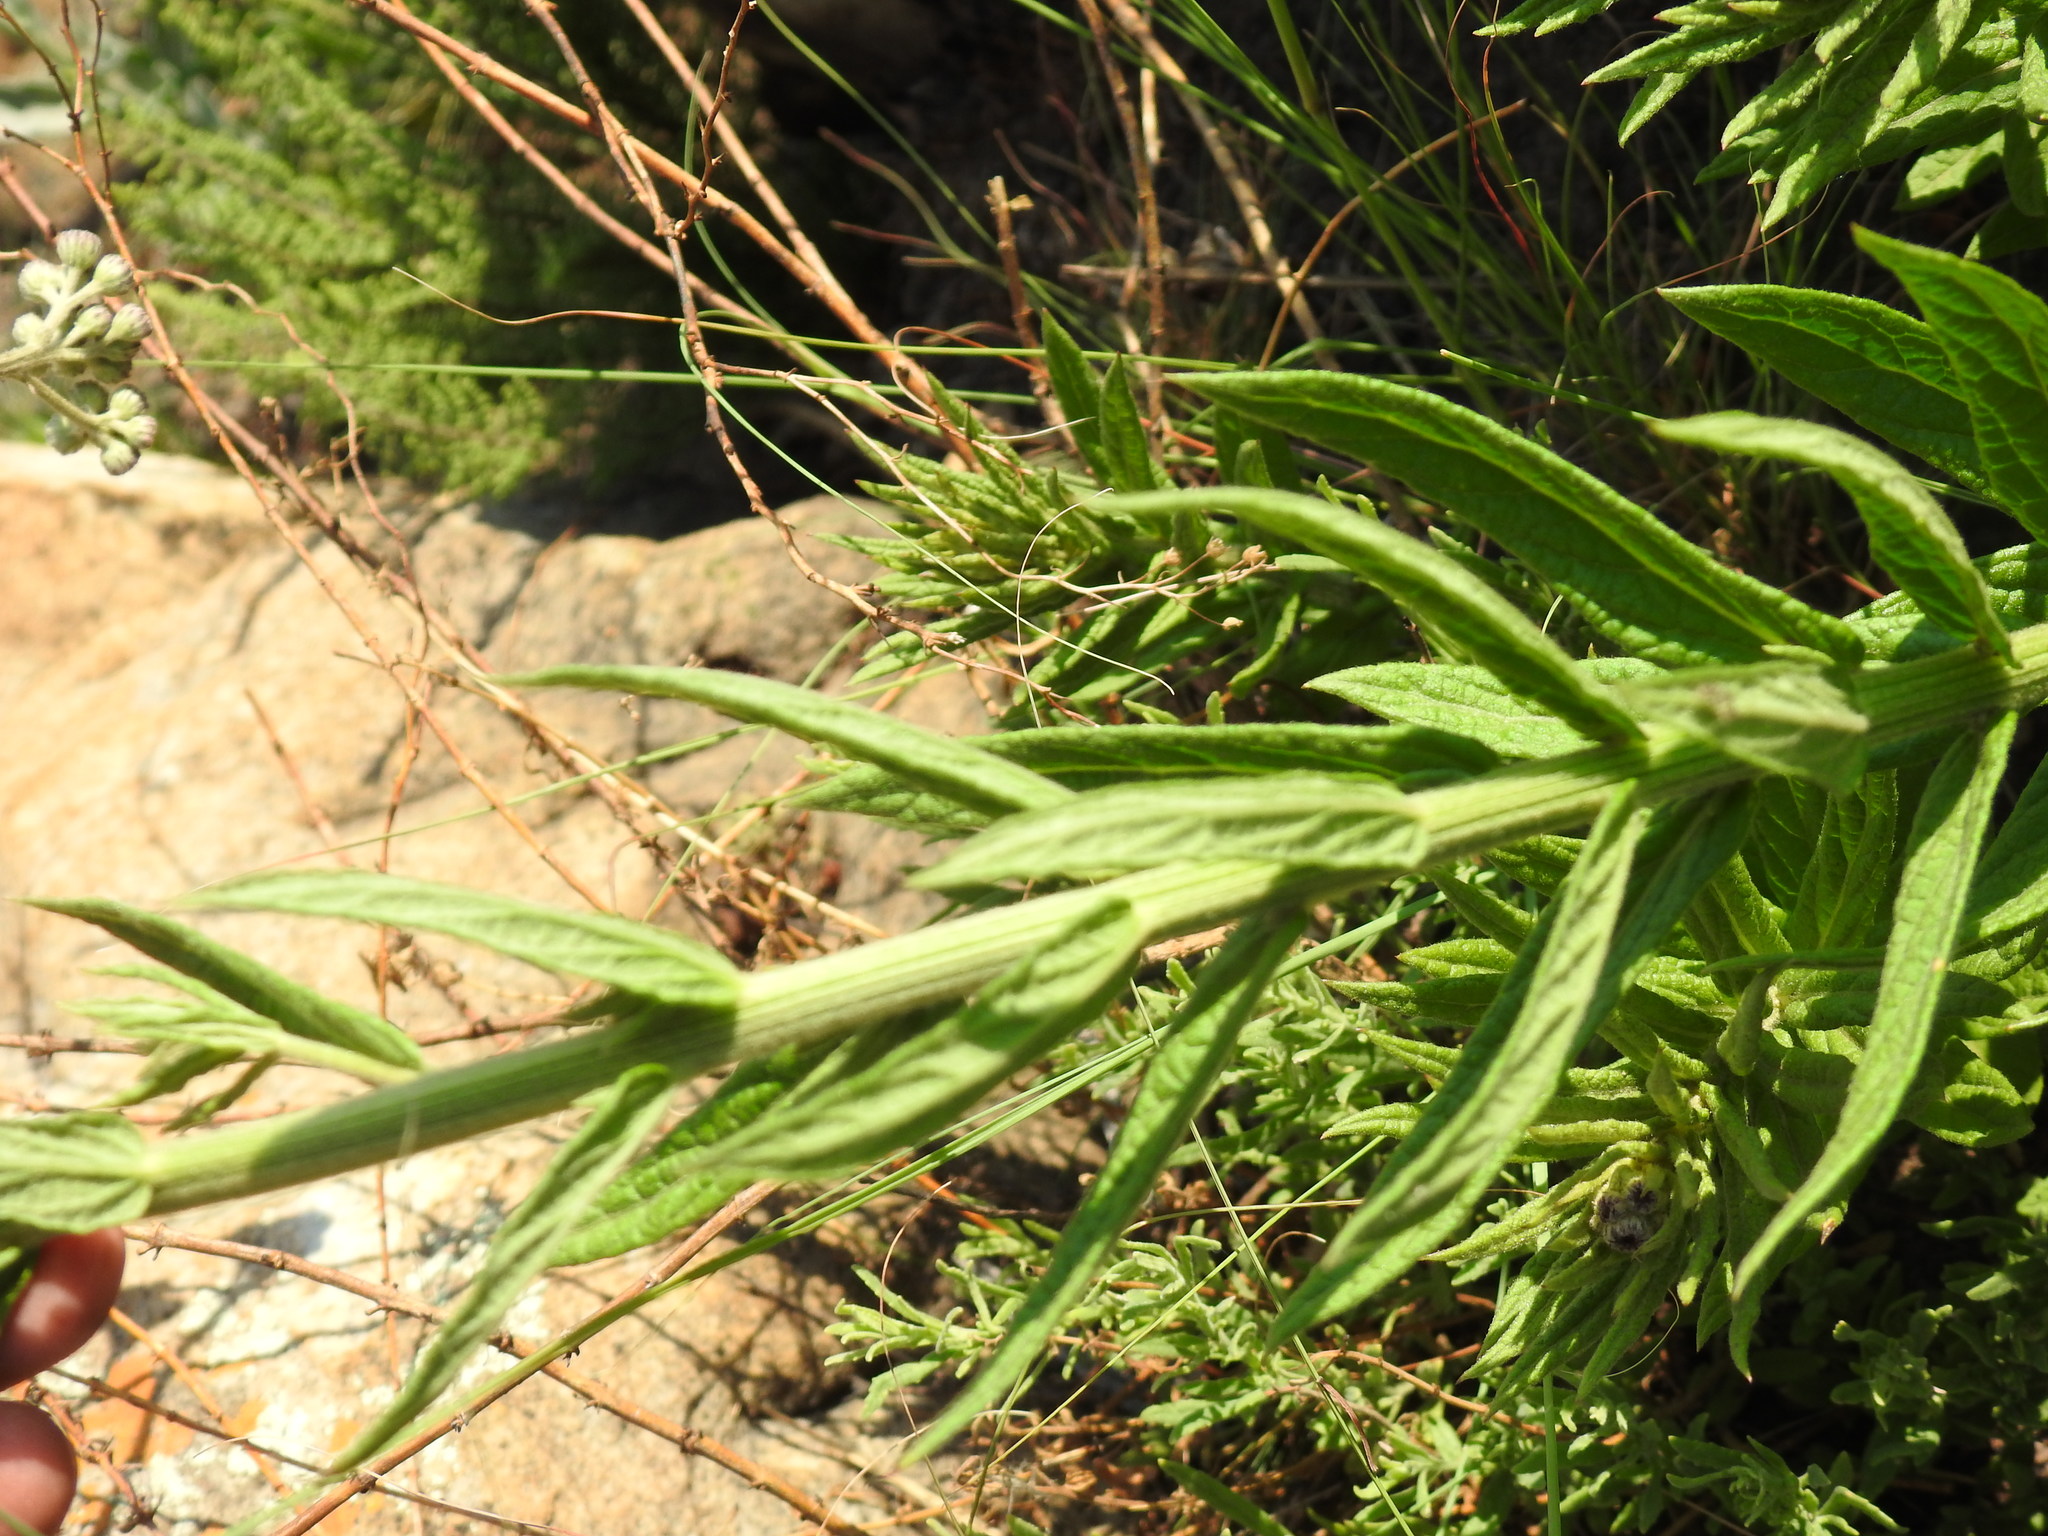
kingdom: Plantae
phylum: Tracheophyta
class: Magnoliopsida
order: Asterales
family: Asteraceae
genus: Hilliardiella
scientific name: Hilliardiella hirsuta
